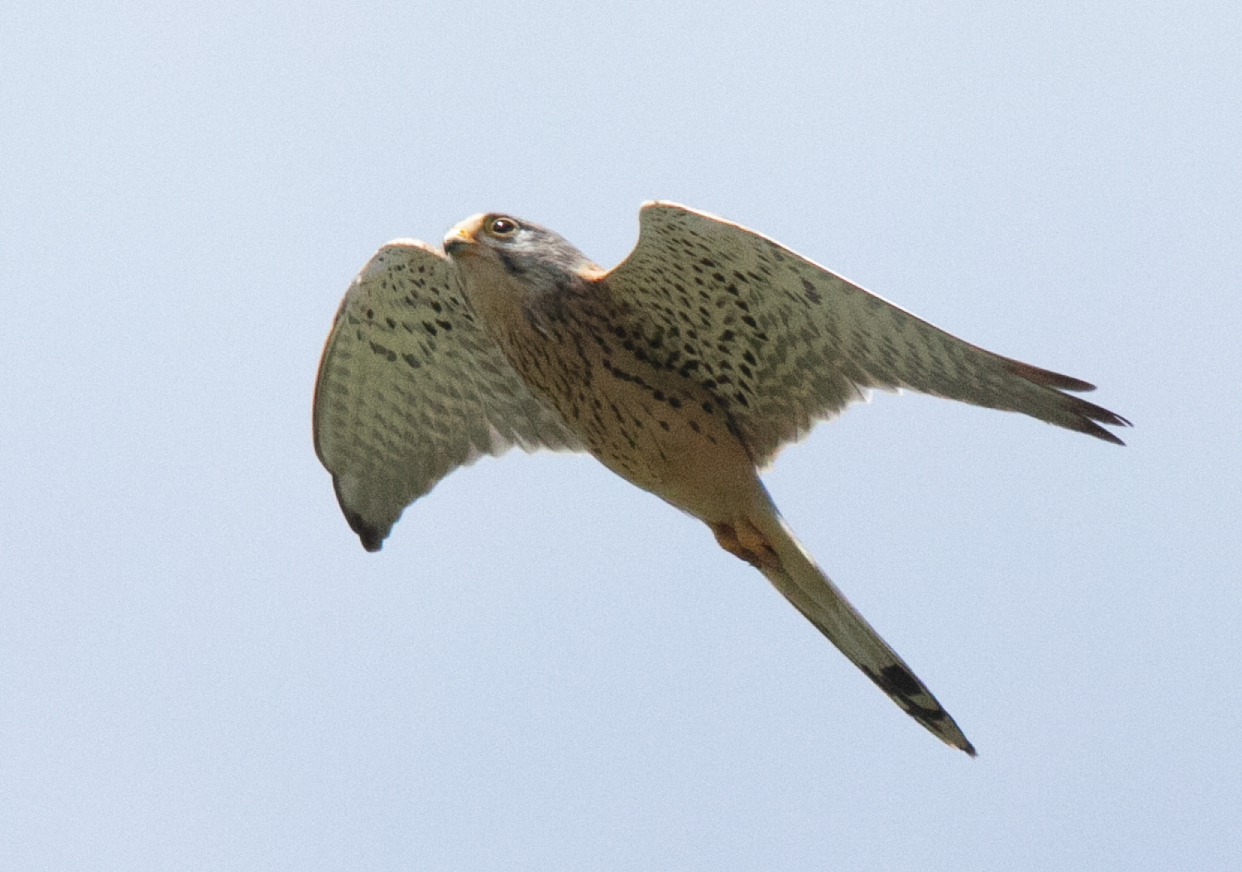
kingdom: Animalia
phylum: Chordata
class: Aves
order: Falconiformes
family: Falconidae
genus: Falco
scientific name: Falco tinnunculus
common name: Common kestrel
